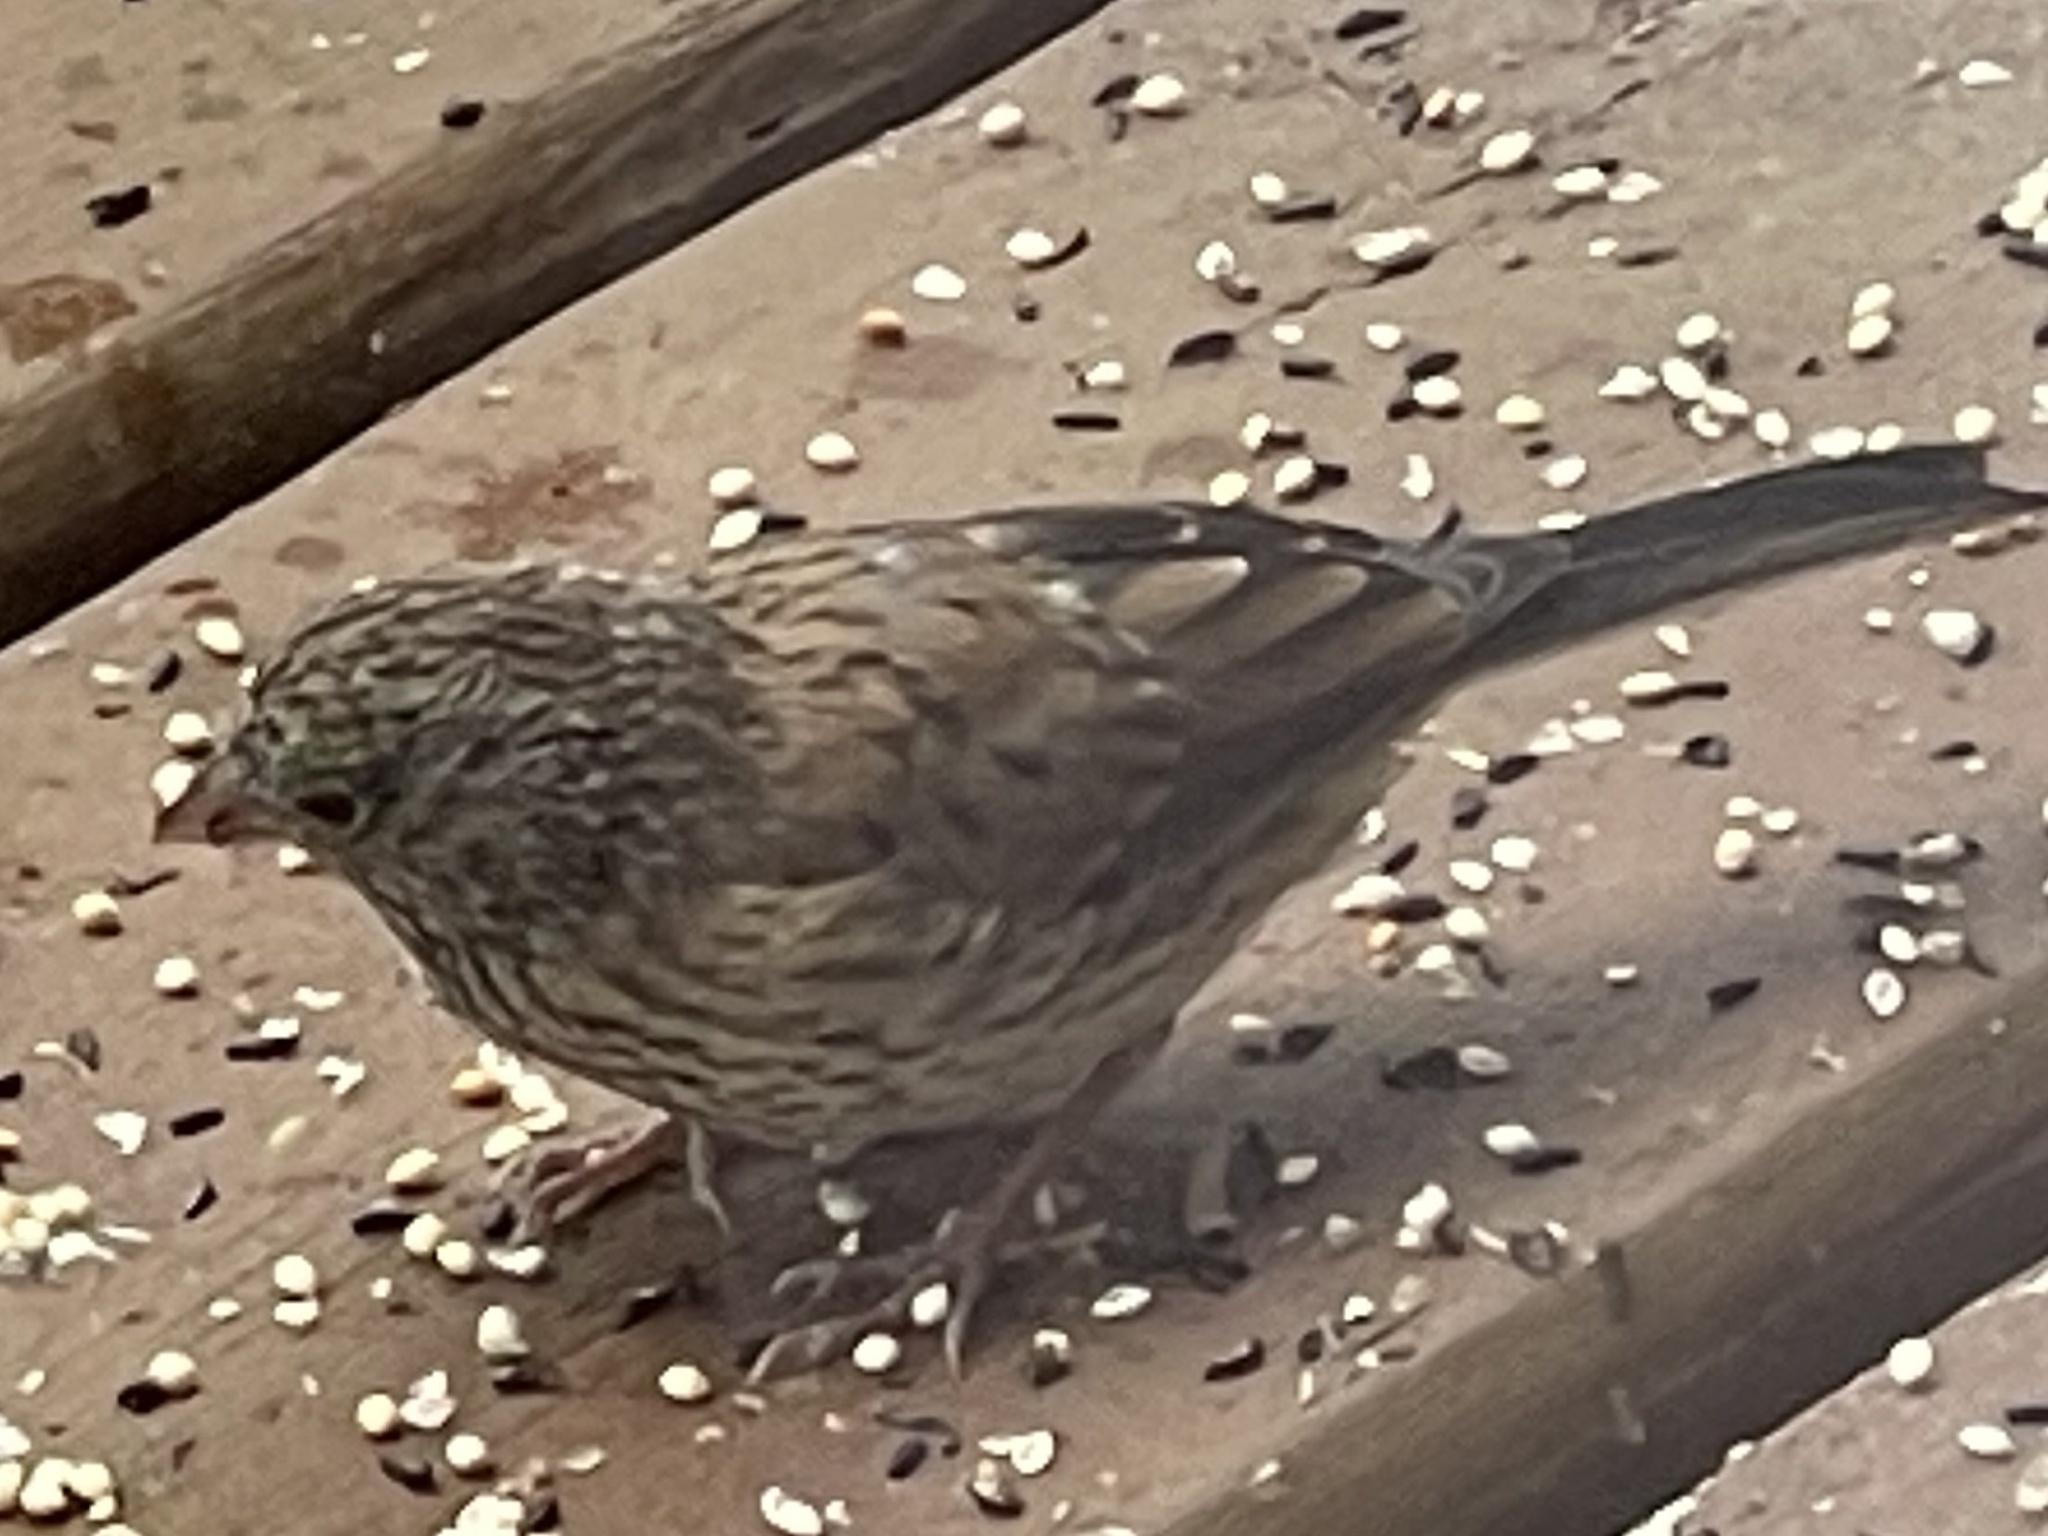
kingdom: Animalia
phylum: Chordata
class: Aves
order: Passeriformes
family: Passerellidae
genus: Junco
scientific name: Junco hyemalis
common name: Dark-eyed junco
